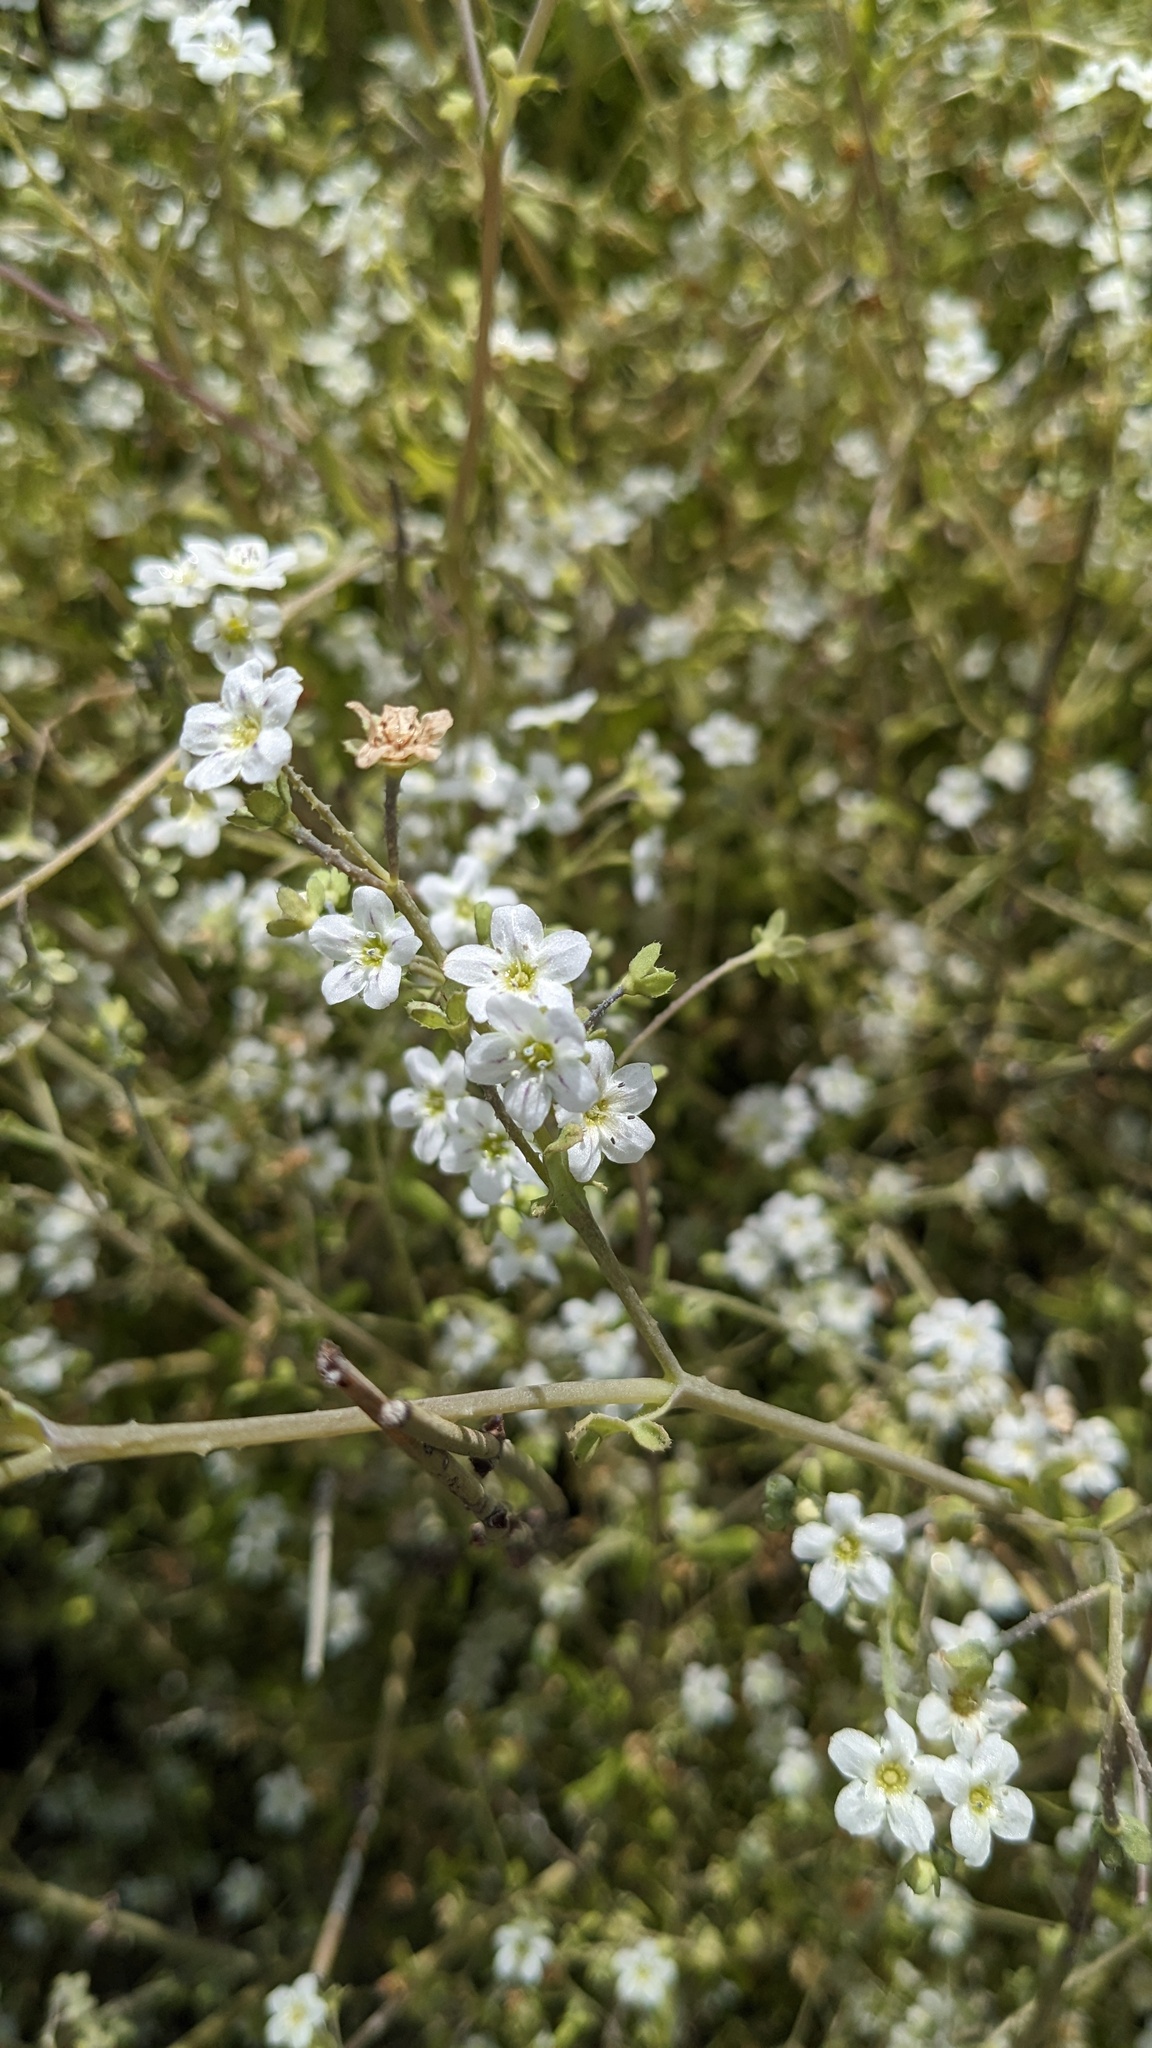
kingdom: Plantae
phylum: Tracheophyta
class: Magnoliopsida
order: Boraginales
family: Hydrophyllaceae
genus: Pholistoma
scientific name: Pholistoma membranaceum
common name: White fiesta-flower
